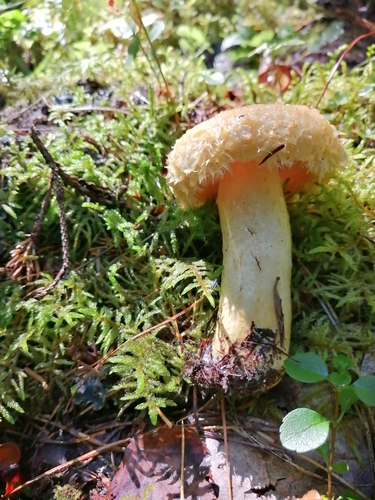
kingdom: Fungi
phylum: Basidiomycota
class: Agaricomycetes
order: Russulales
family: Russulaceae
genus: Lactarius
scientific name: Lactarius
